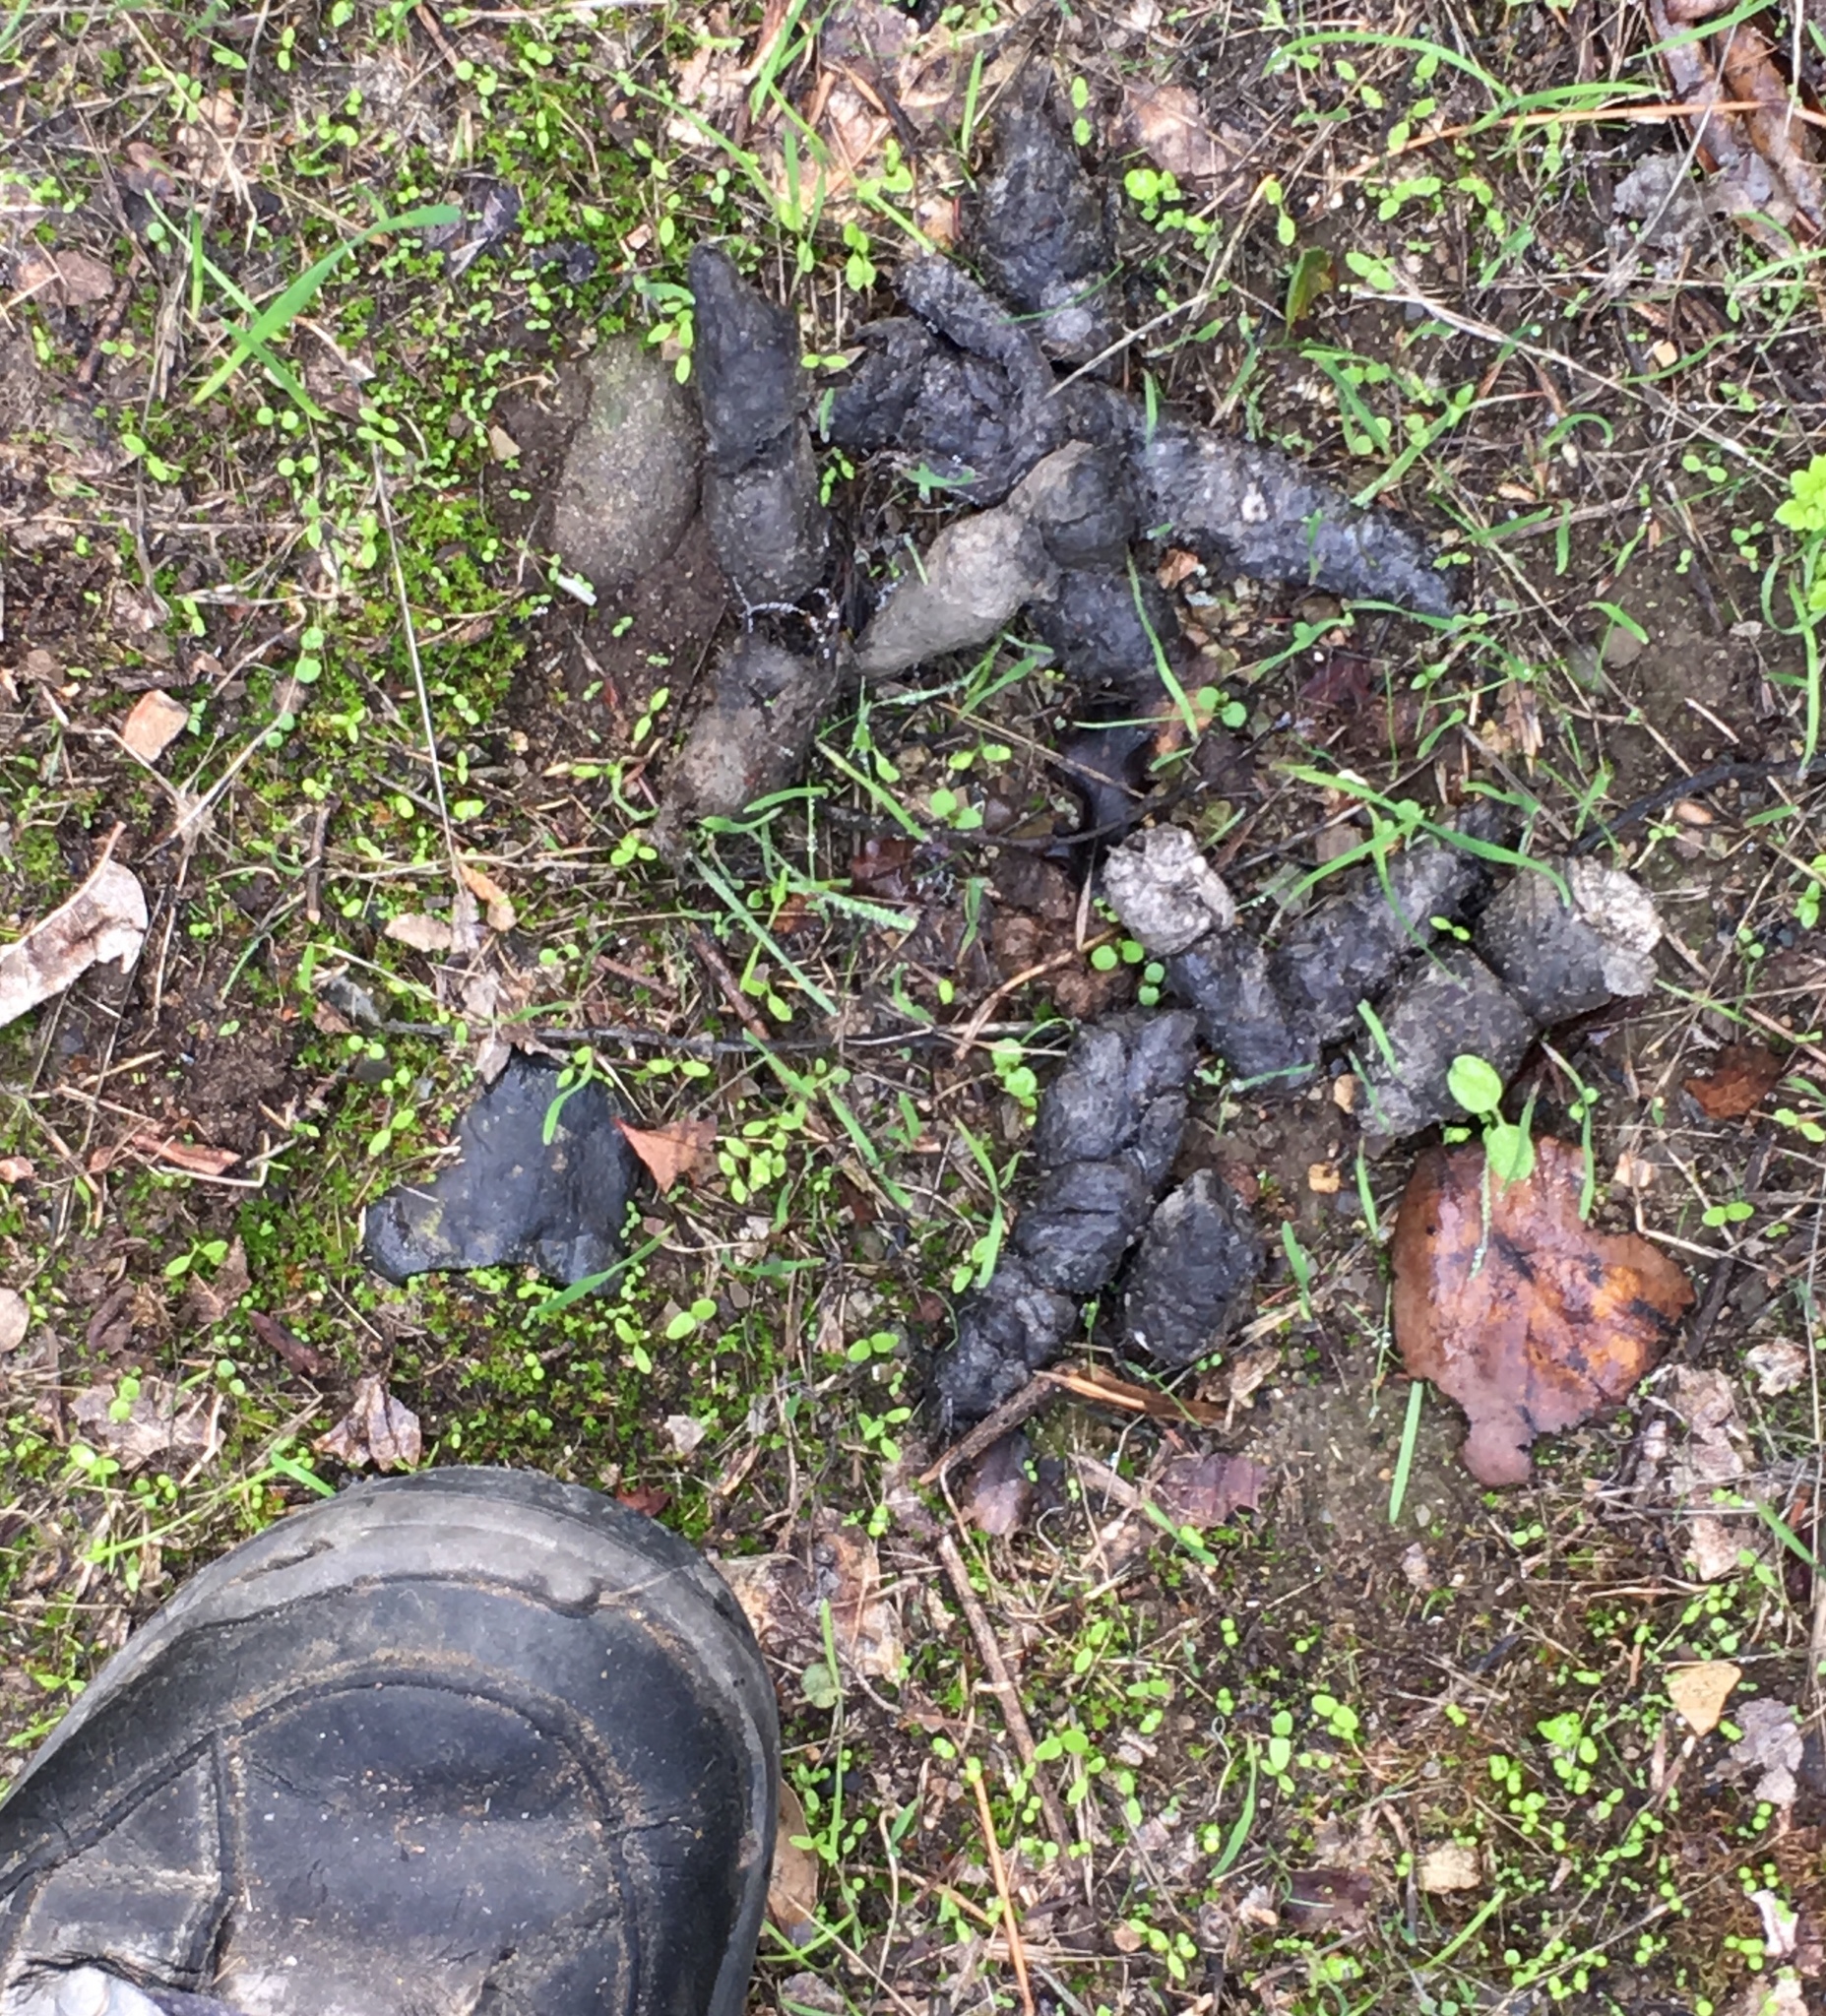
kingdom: Animalia
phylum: Chordata
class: Mammalia
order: Carnivora
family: Felidae
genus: Lynx
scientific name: Lynx rufus
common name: Bobcat
